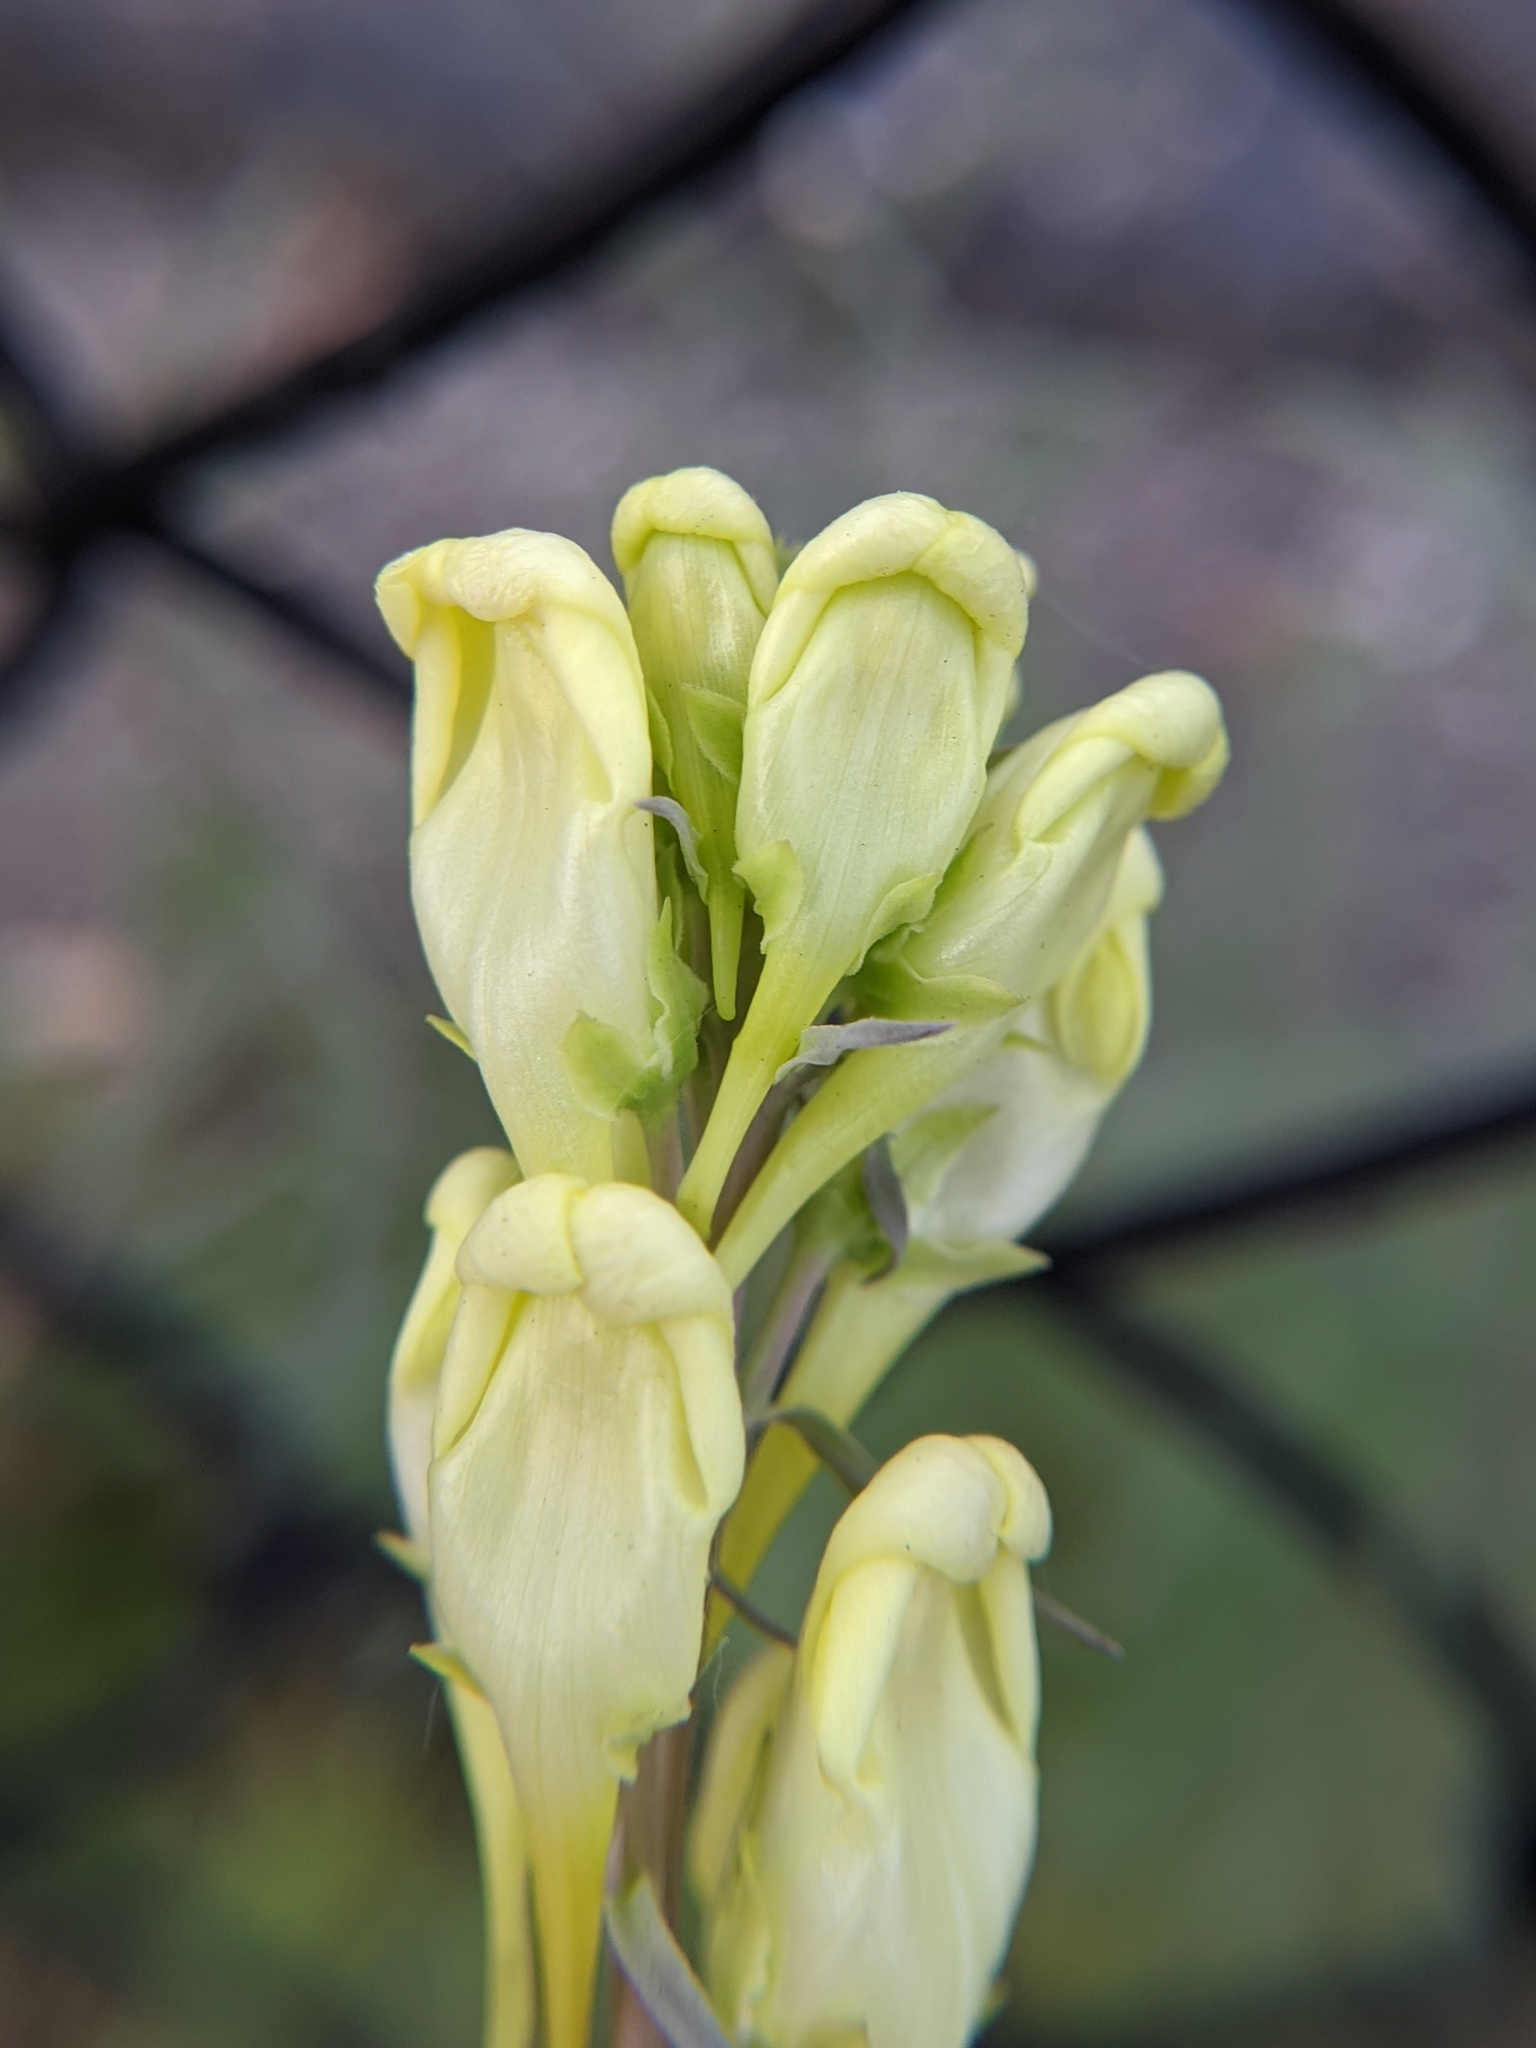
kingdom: Plantae
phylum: Tracheophyta
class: Magnoliopsida
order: Lamiales
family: Plantaginaceae
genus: Linaria
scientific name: Linaria vulgaris
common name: Butter and eggs
